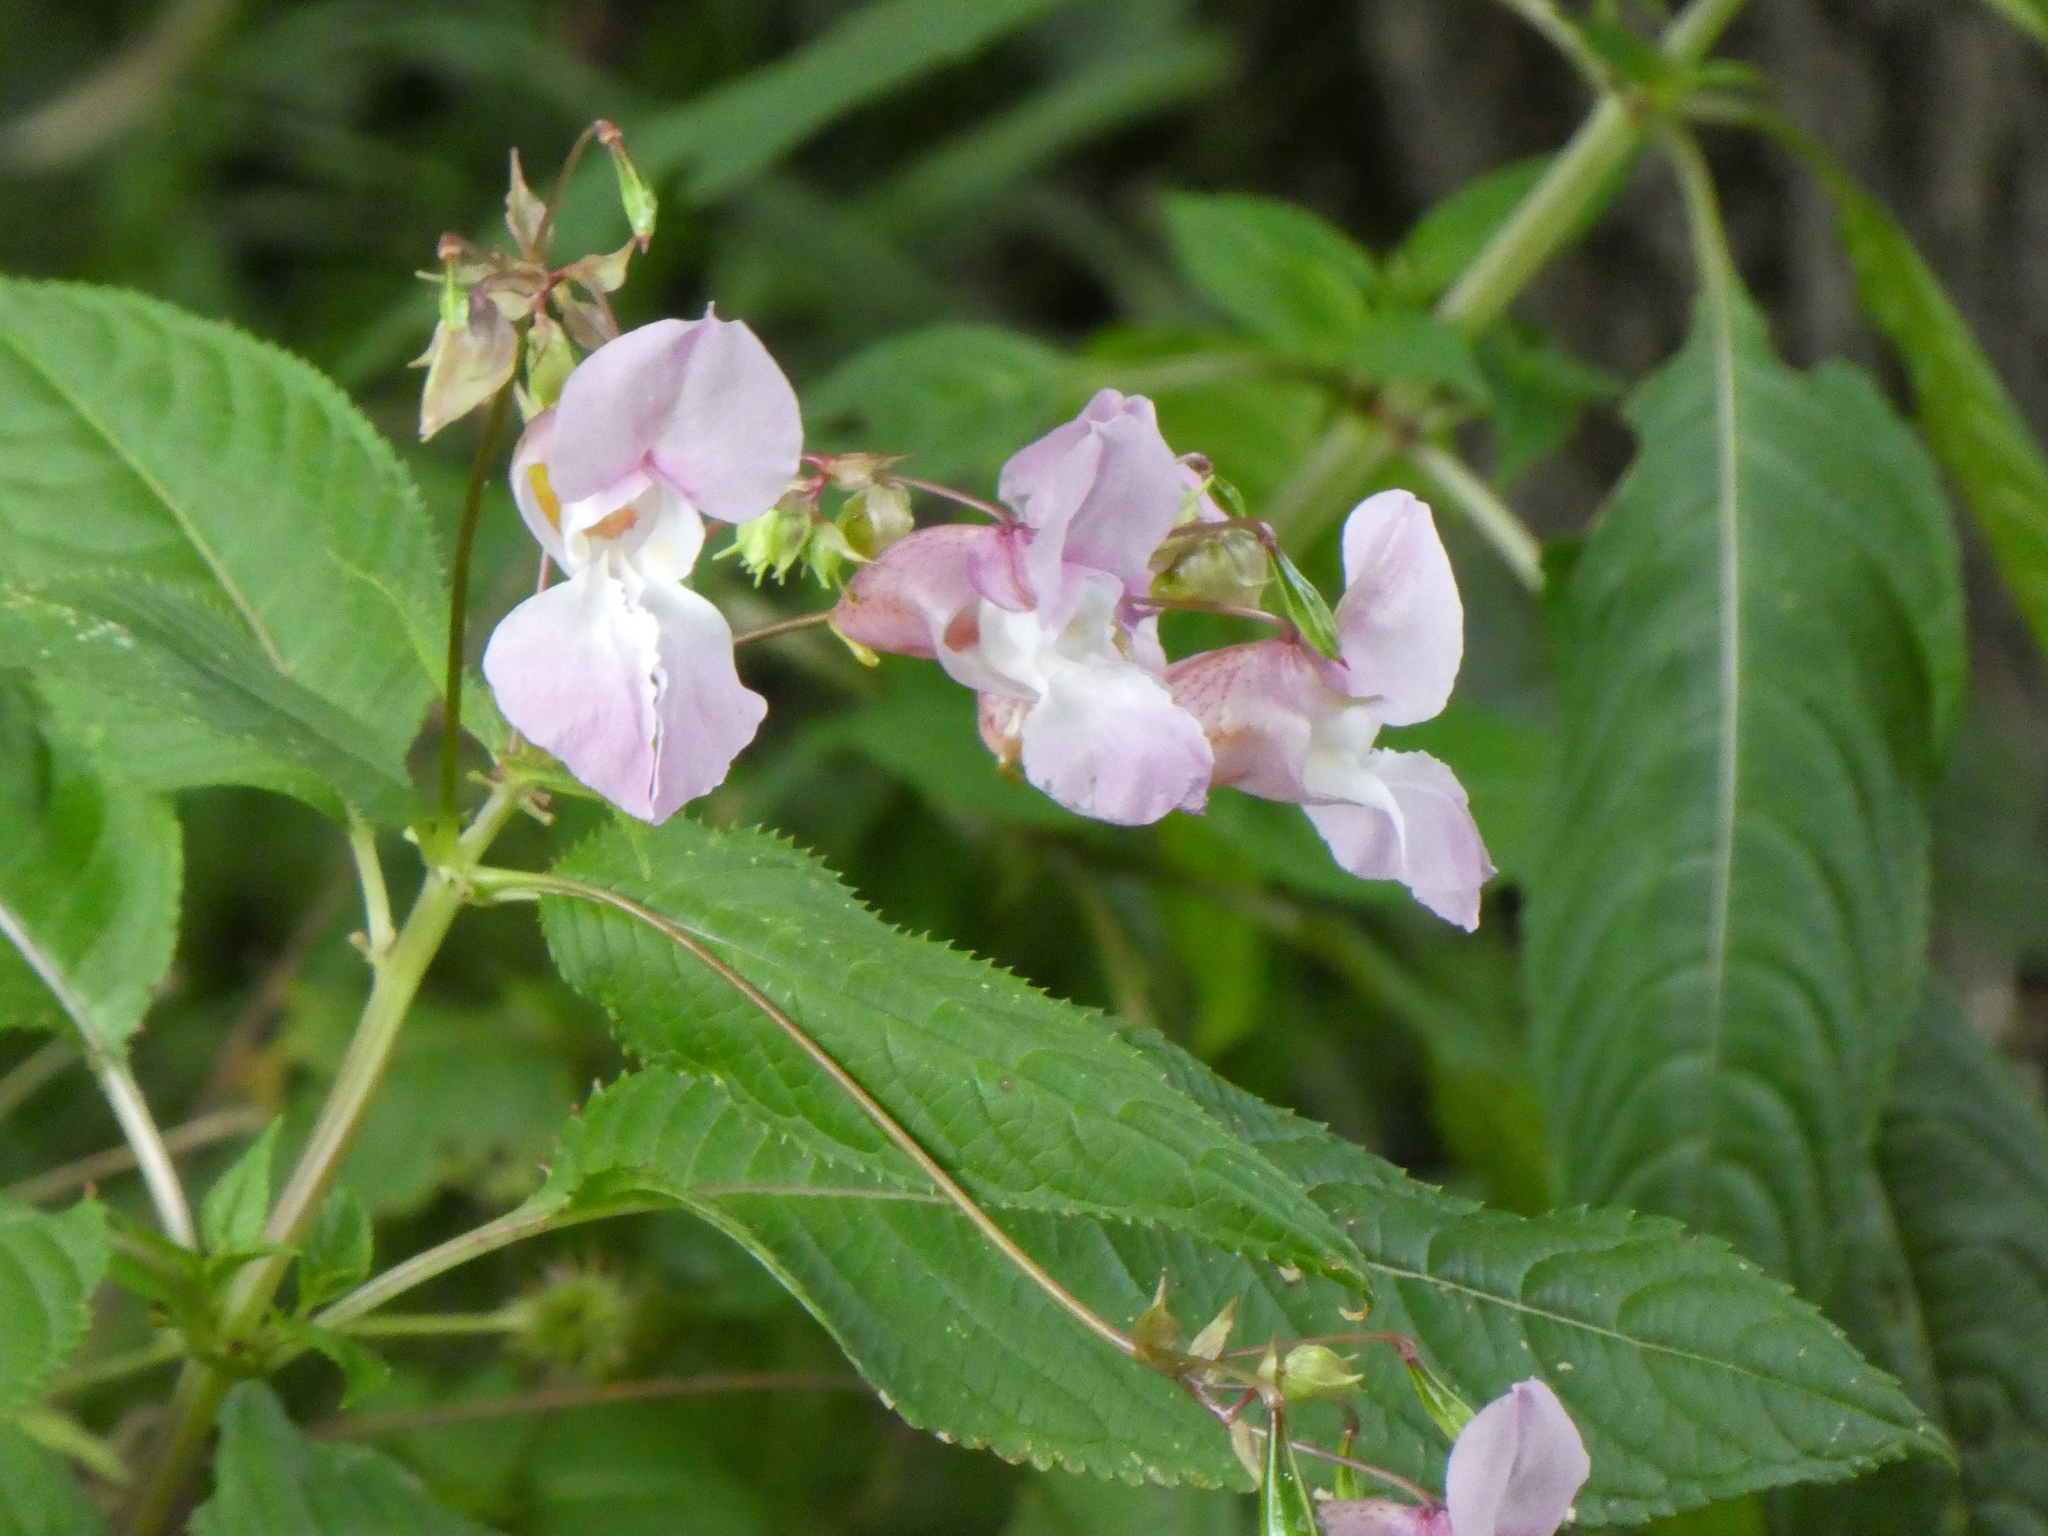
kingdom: Plantae
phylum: Tracheophyta
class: Magnoliopsida
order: Ericales
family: Balsaminaceae
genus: Impatiens
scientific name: Impatiens glandulifera
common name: Himalayan balsam
